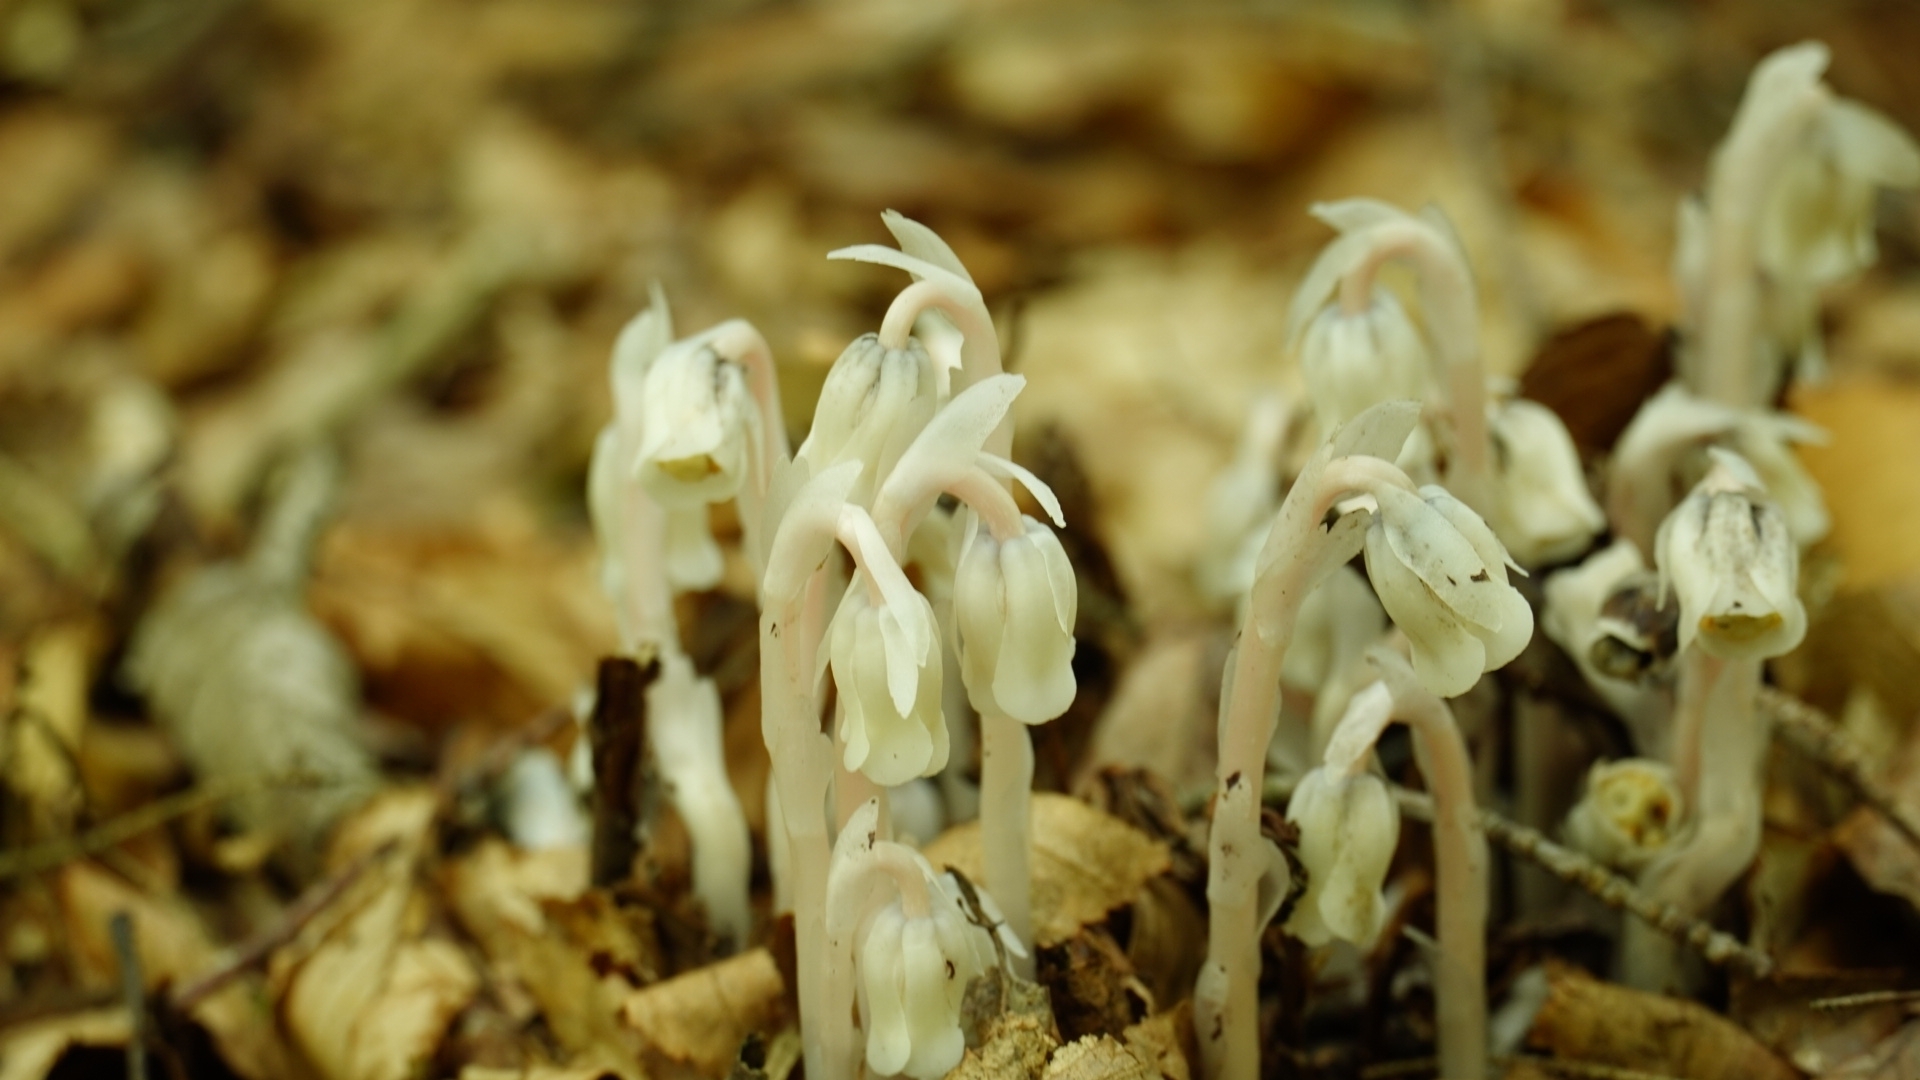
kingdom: Plantae
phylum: Tracheophyta
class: Magnoliopsida
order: Ericales
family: Ericaceae
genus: Monotropa
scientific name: Monotropa uniflora
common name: Convulsion root
